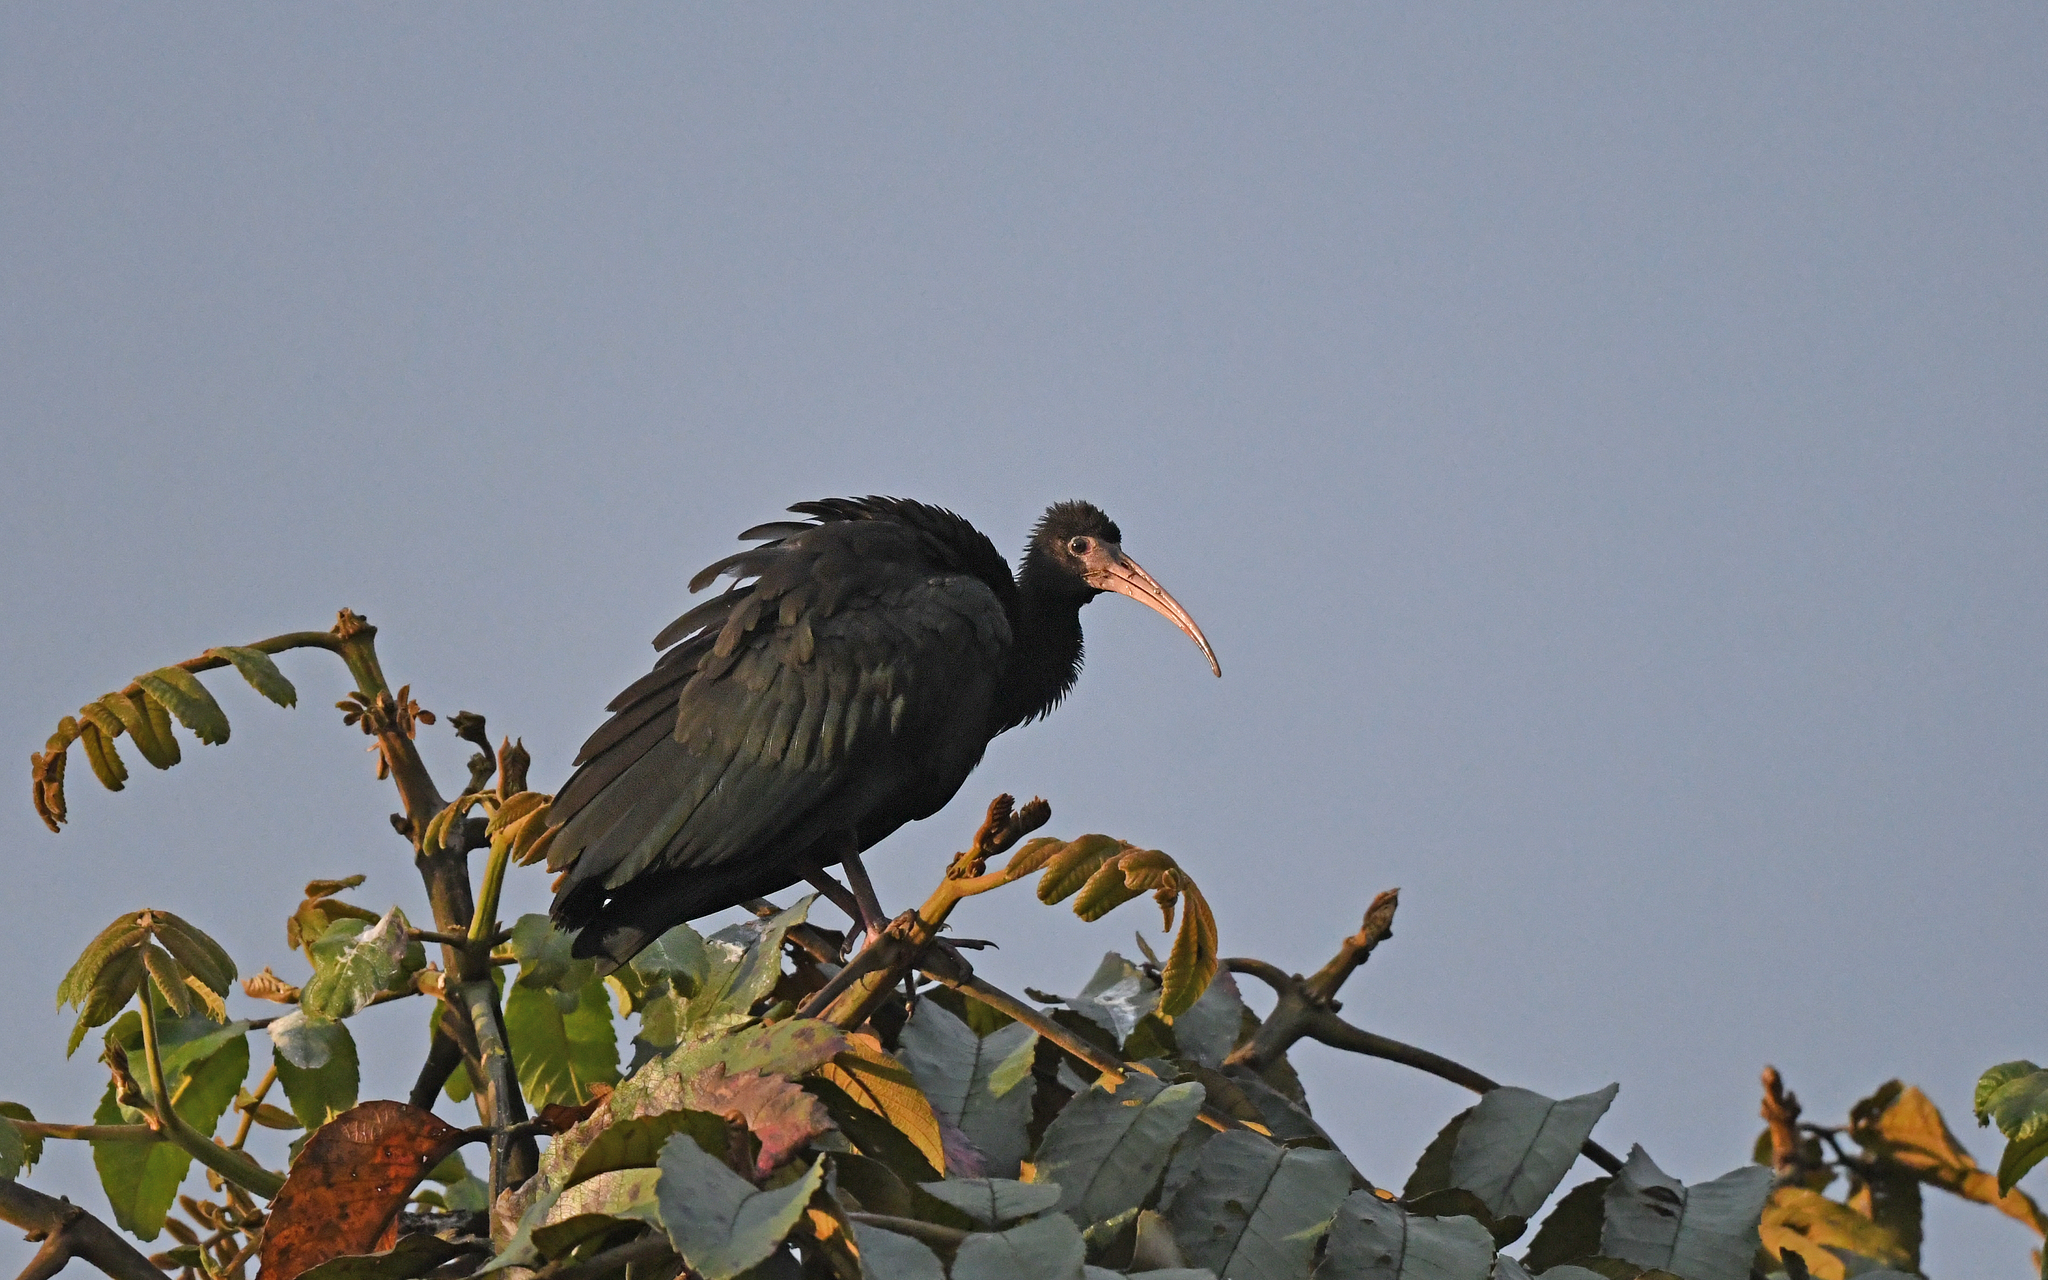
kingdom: Animalia
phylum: Chordata
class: Aves
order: Pelecaniformes
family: Threskiornithidae
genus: Phimosus
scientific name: Phimosus infuscatus
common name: Bare-faced ibis
